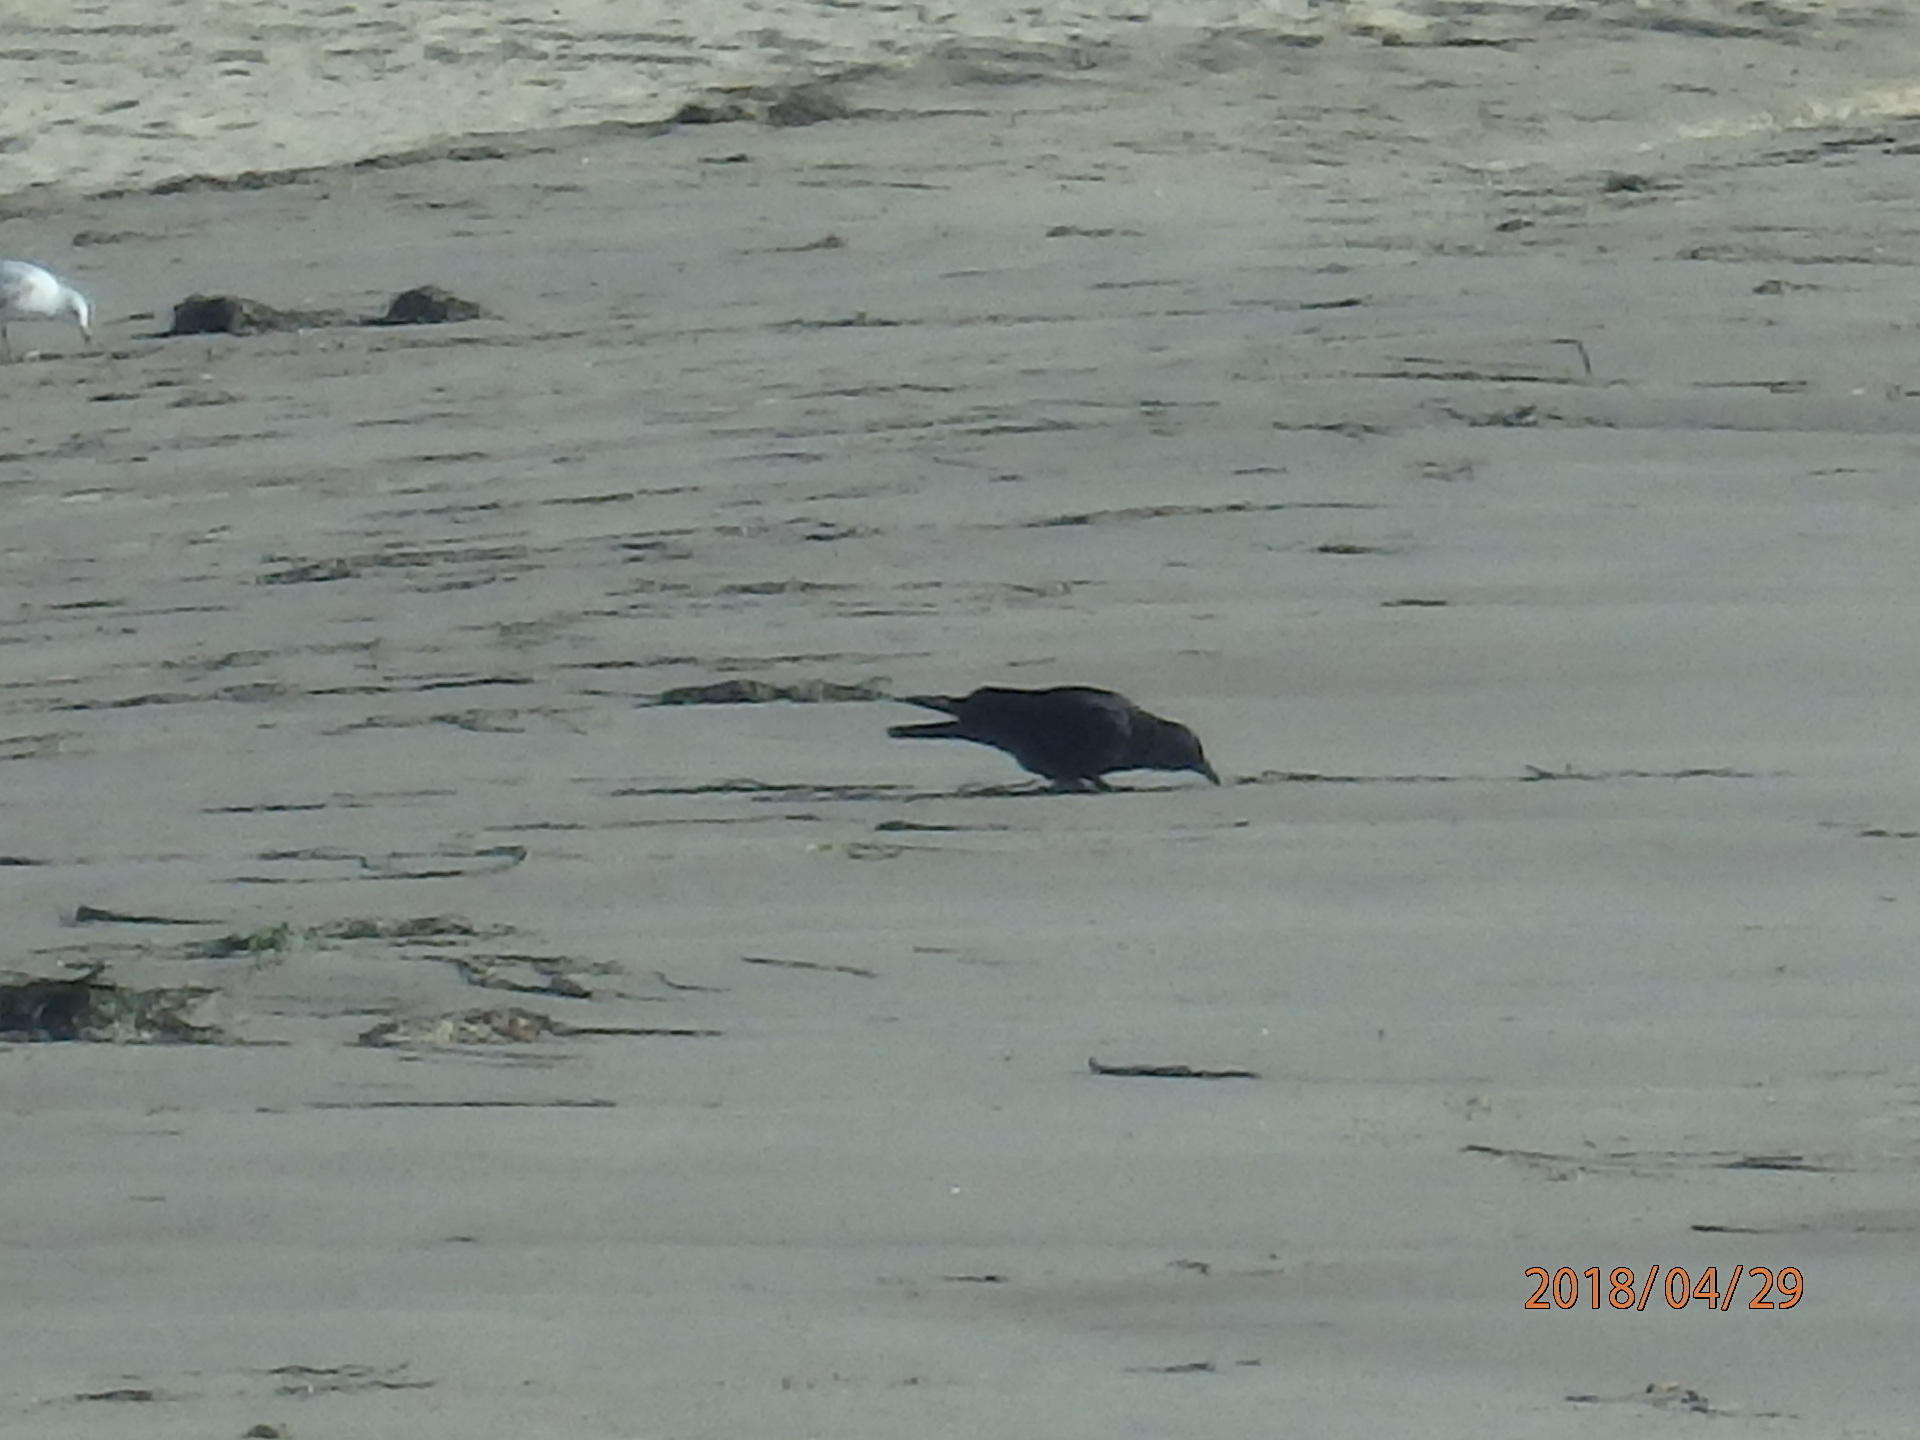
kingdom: Animalia
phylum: Chordata
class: Aves
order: Passeriformes
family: Corvidae
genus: Corvus
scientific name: Corvus brachyrhynchos
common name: American crow
